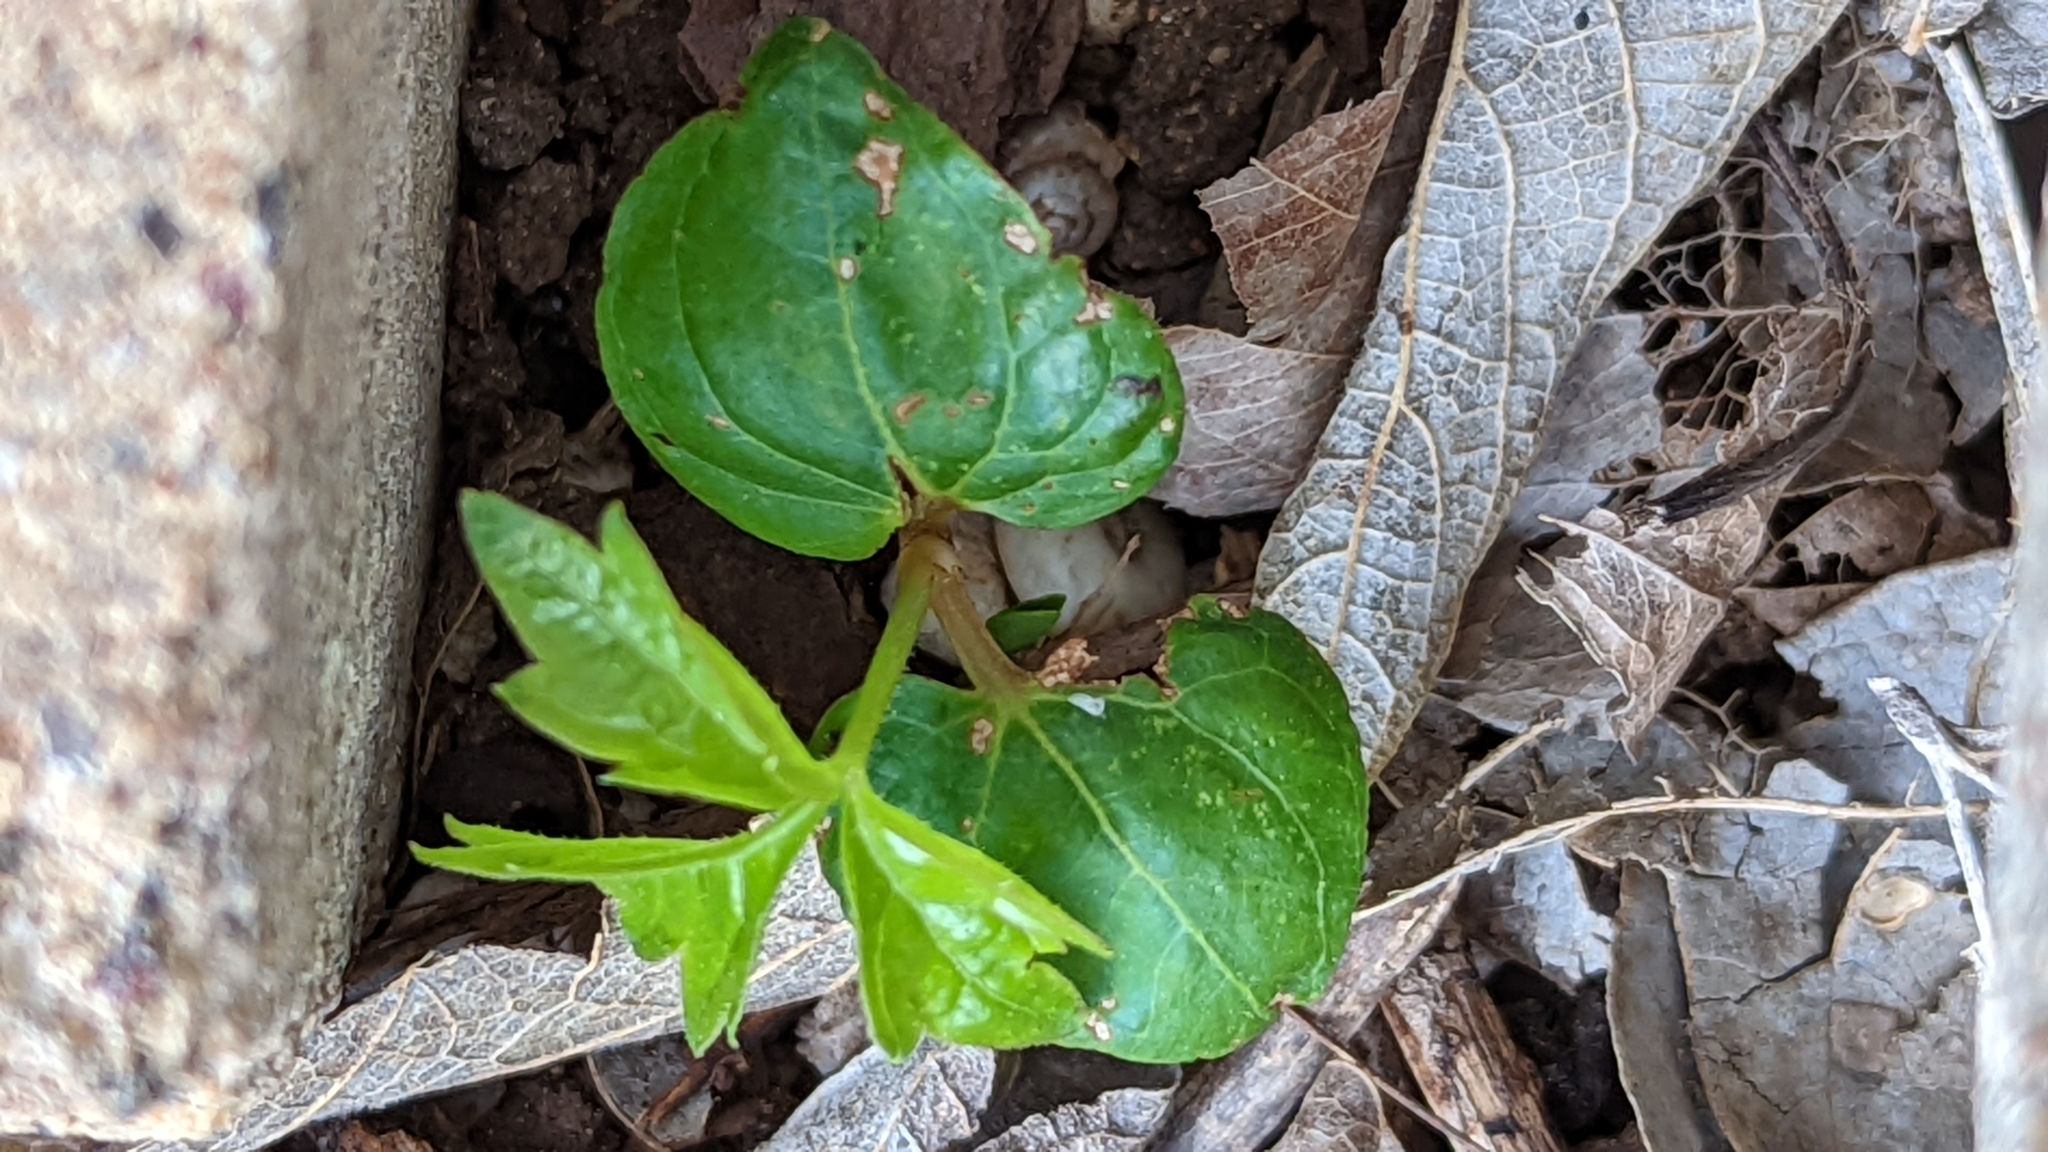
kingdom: Plantae
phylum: Tracheophyta
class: Magnoliopsida
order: Vitales
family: Vitaceae
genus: Parthenocissus
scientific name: Parthenocissus quinquefolia
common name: Virginia-creeper
